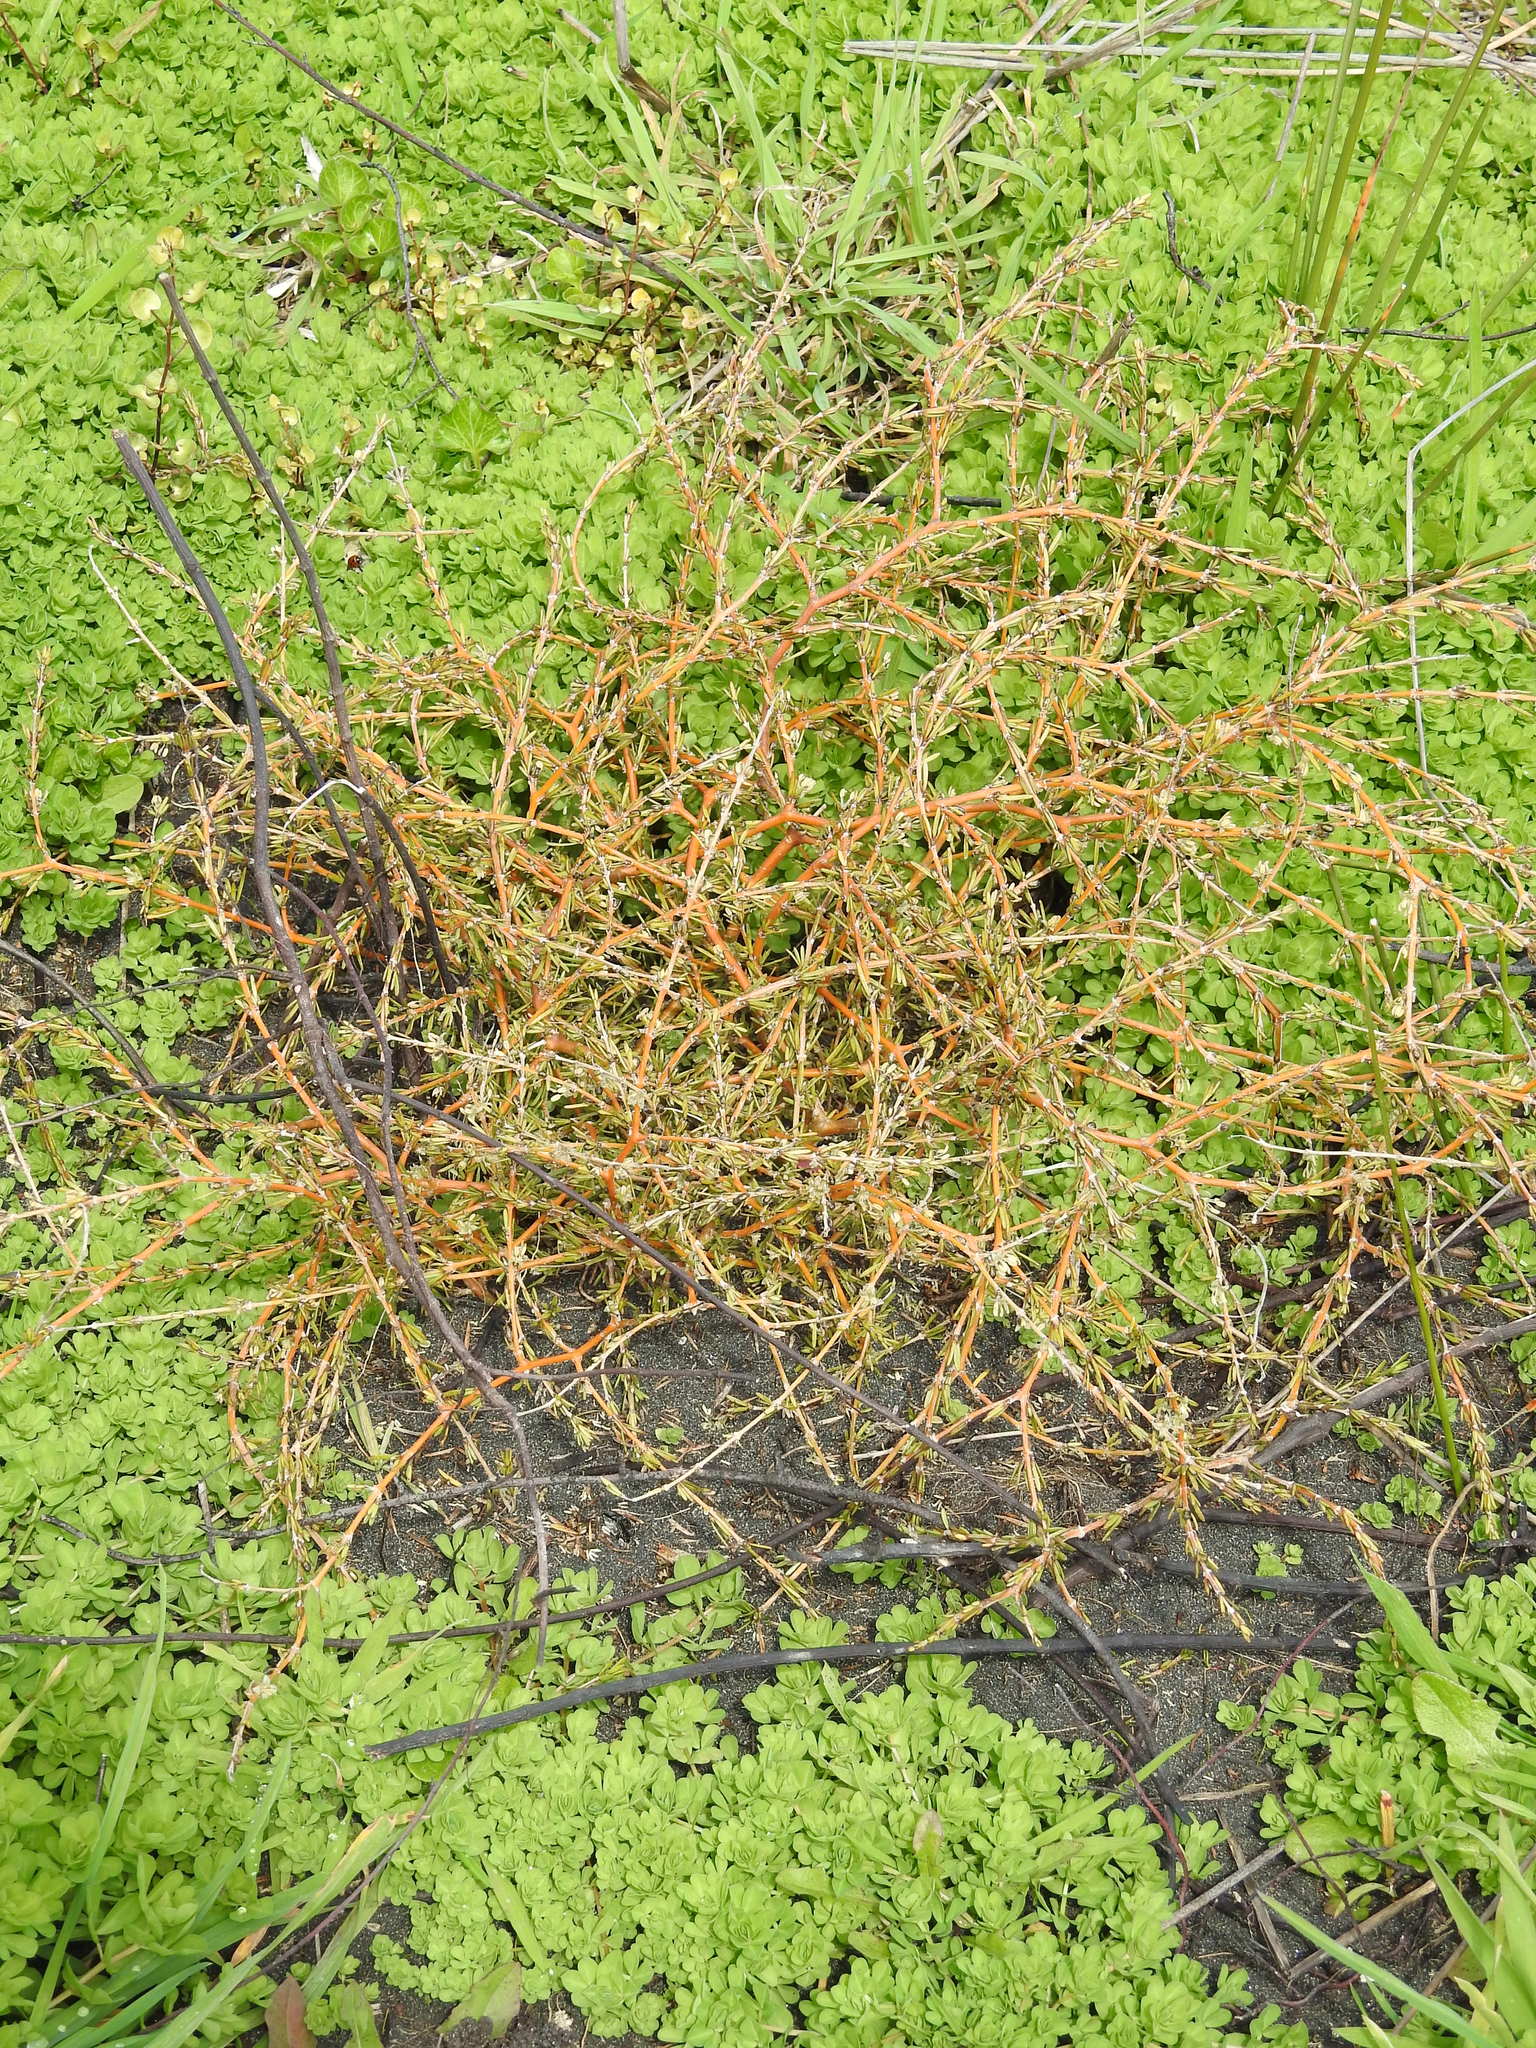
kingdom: Plantae
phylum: Tracheophyta
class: Magnoliopsida
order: Gentianales
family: Rubiaceae
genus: Coprosma
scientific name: Coprosma acerosa
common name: Sand coprosma
